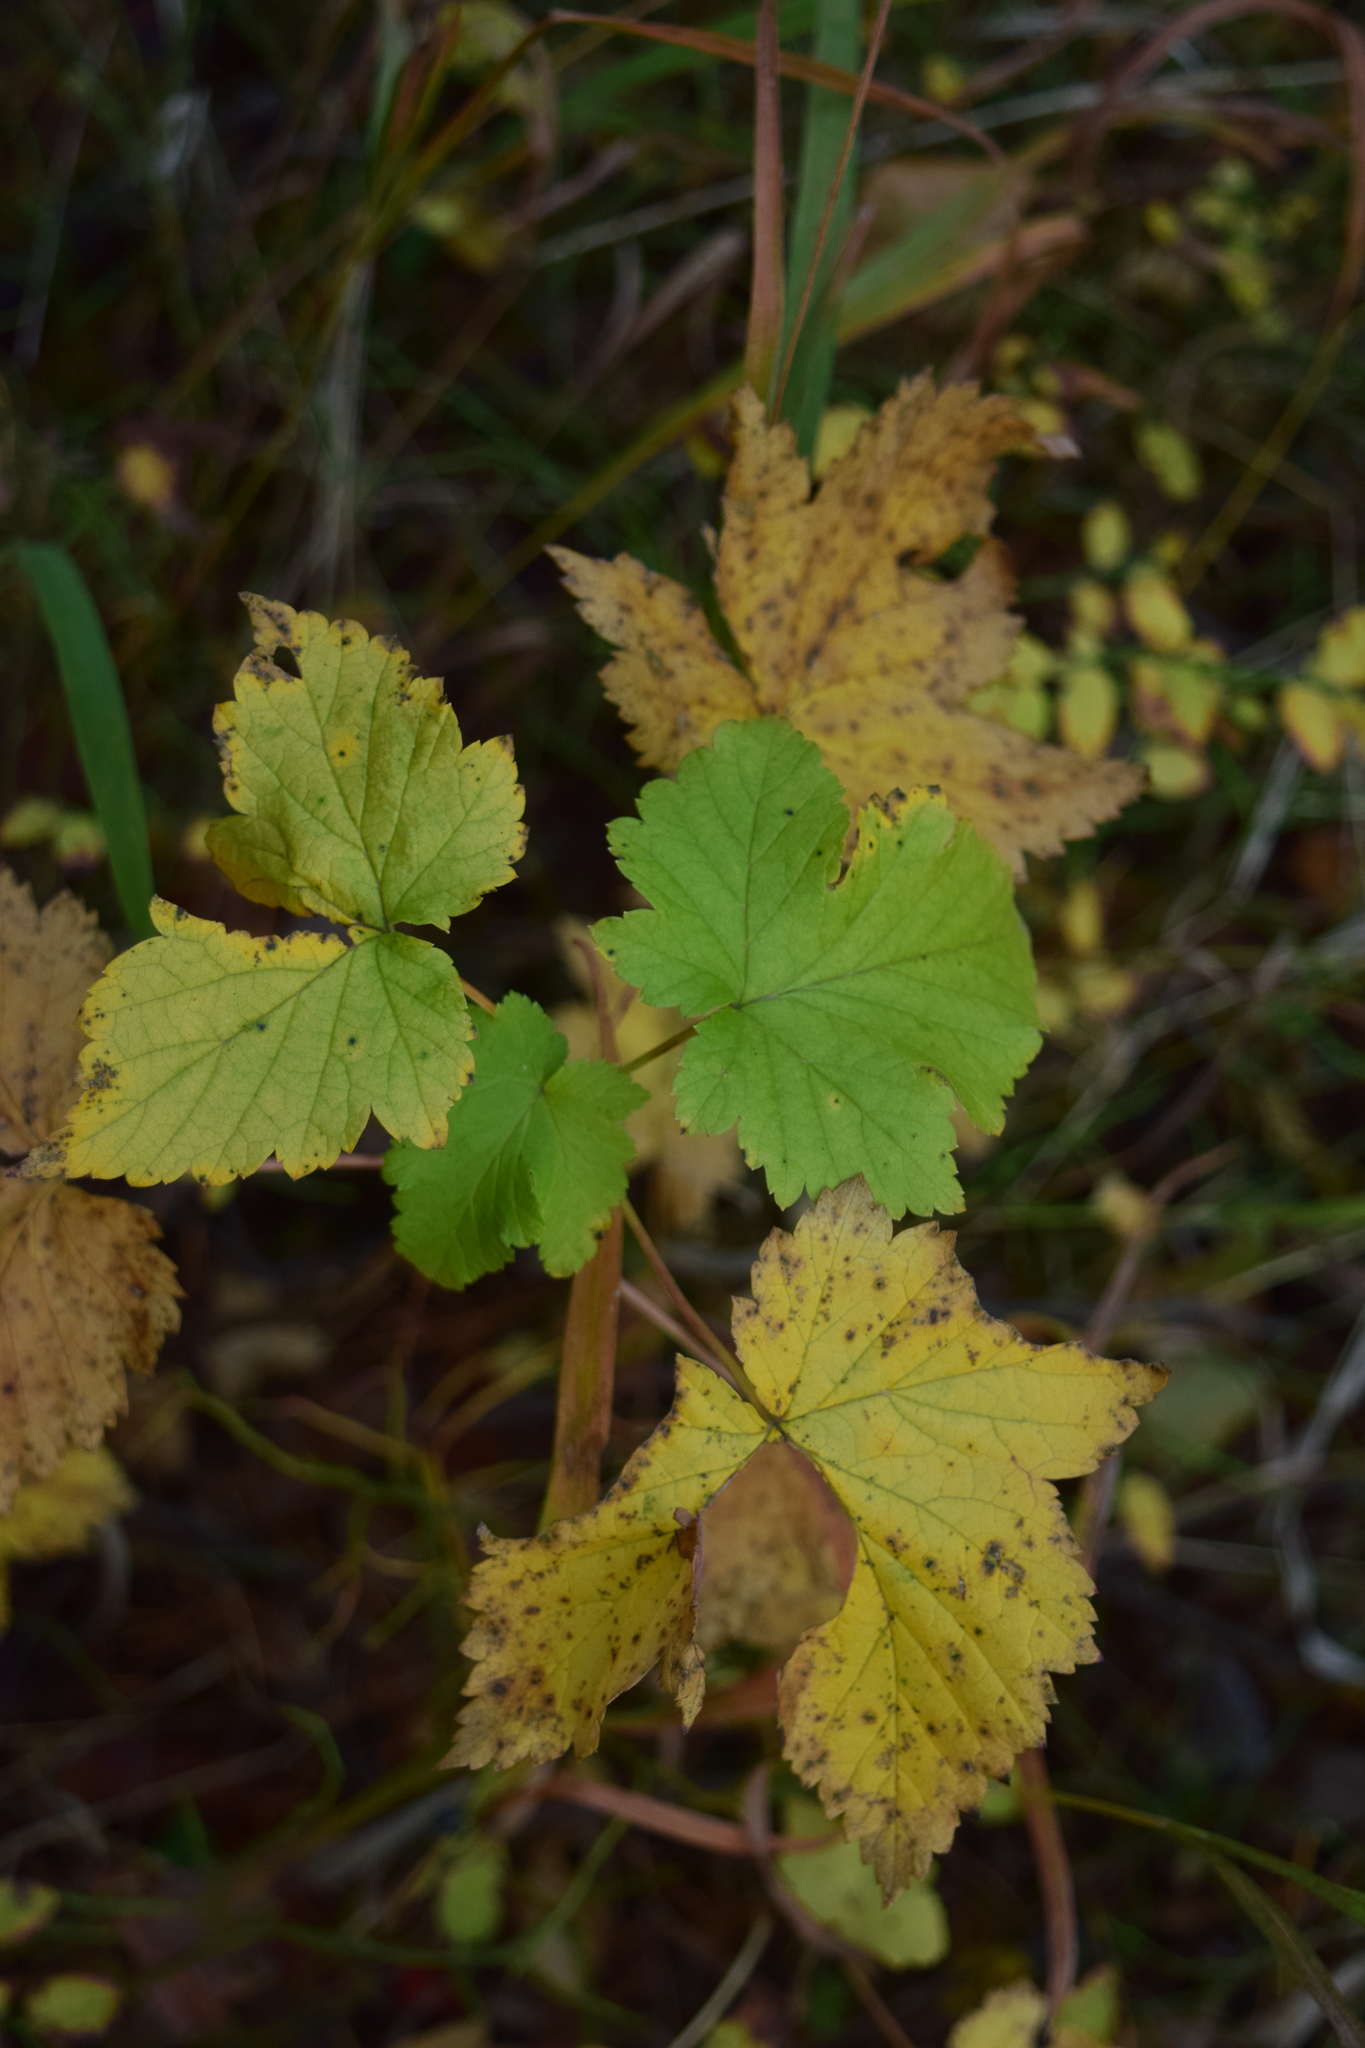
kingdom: Plantae
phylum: Tracheophyta
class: Magnoliopsida
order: Saxifragales
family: Grossulariaceae
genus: Ribes
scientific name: Ribes nigrum
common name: Black currant
